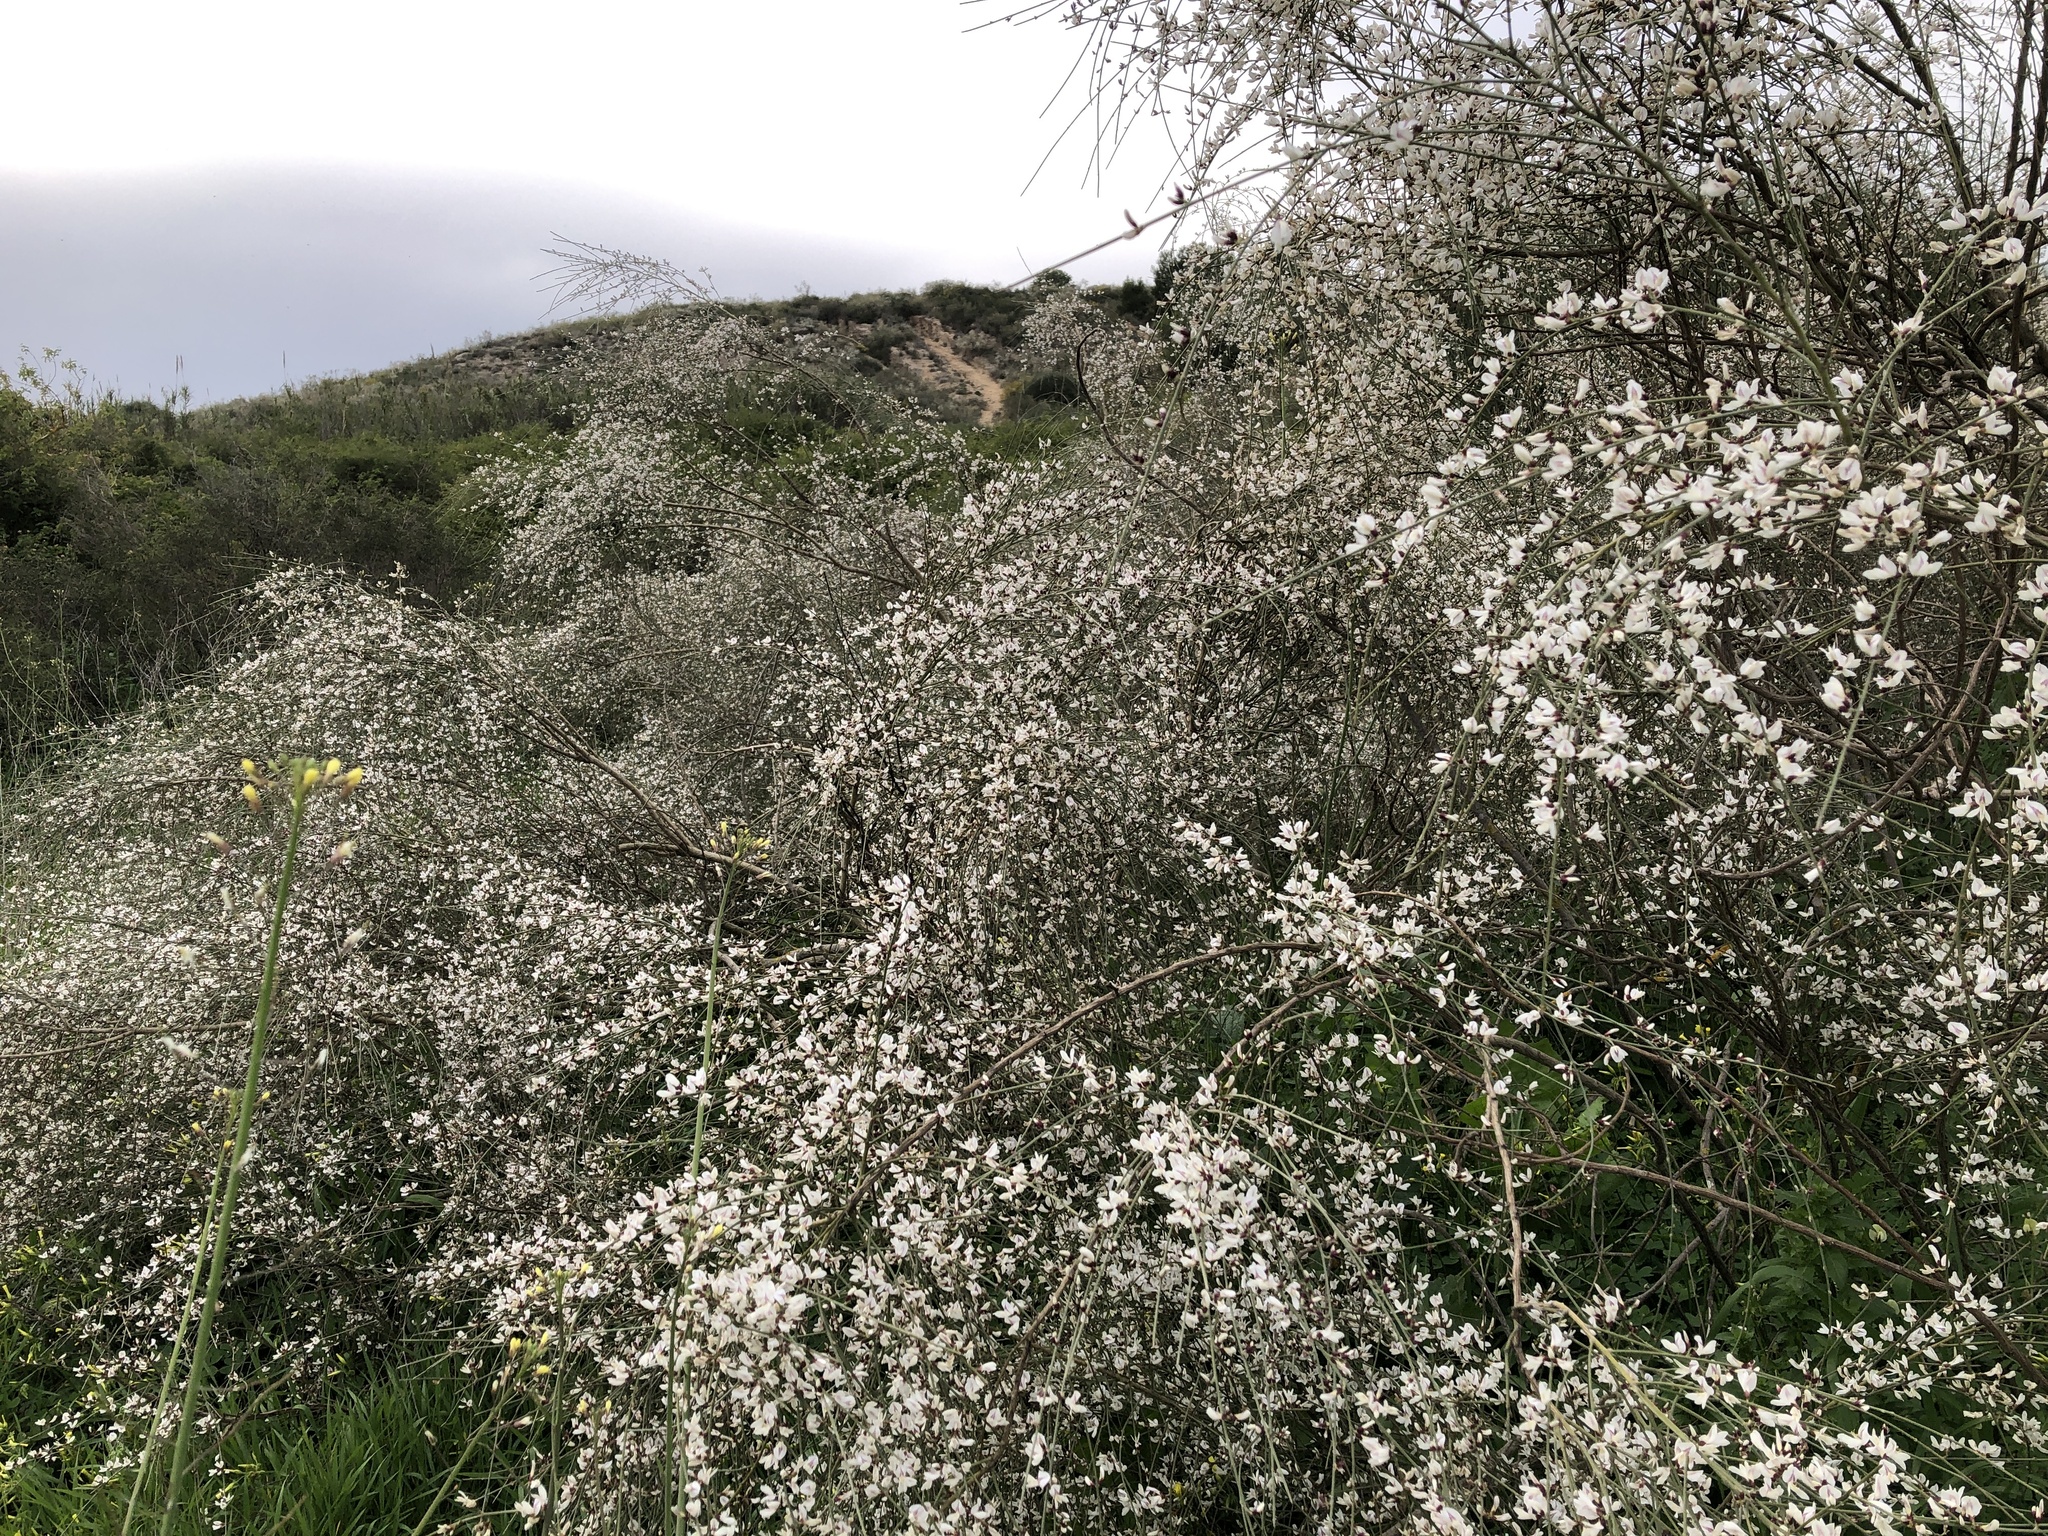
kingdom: Plantae
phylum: Tracheophyta
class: Magnoliopsida
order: Fabales
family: Fabaceae
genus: Retama
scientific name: Retama raetam
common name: Retem
